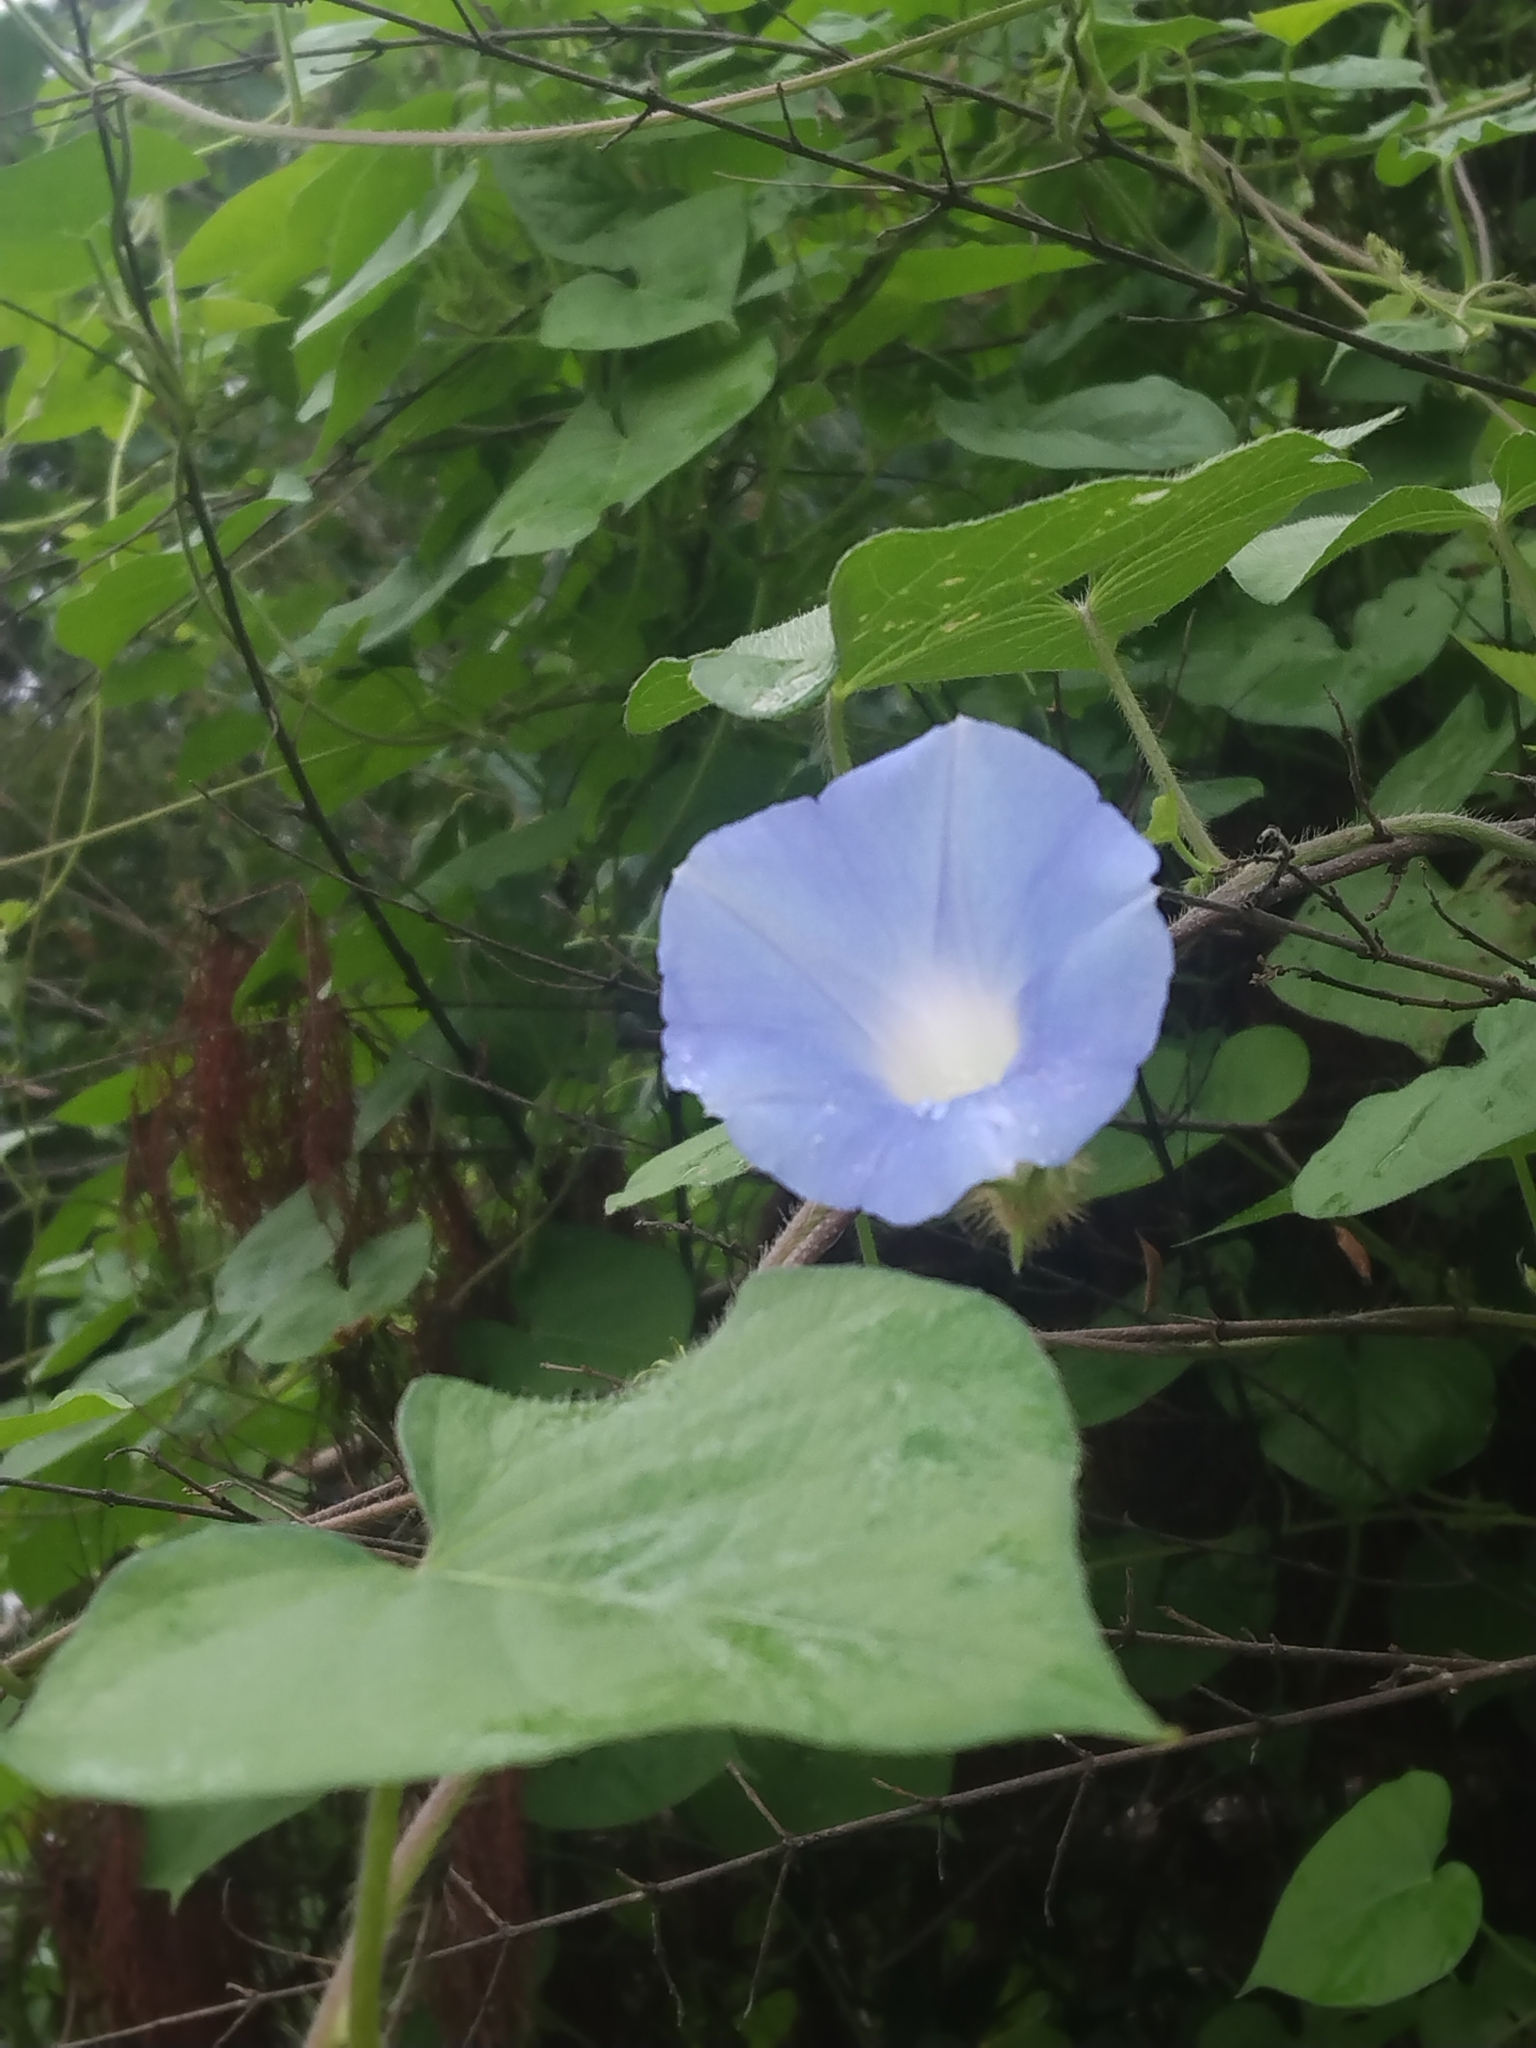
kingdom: Plantae
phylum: Tracheophyta
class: Magnoliopsida
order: Solanales
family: Convolvulaceae
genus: Ipomoea
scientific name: Ipomoea hederacea
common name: Ivy-leaved morning-glory
